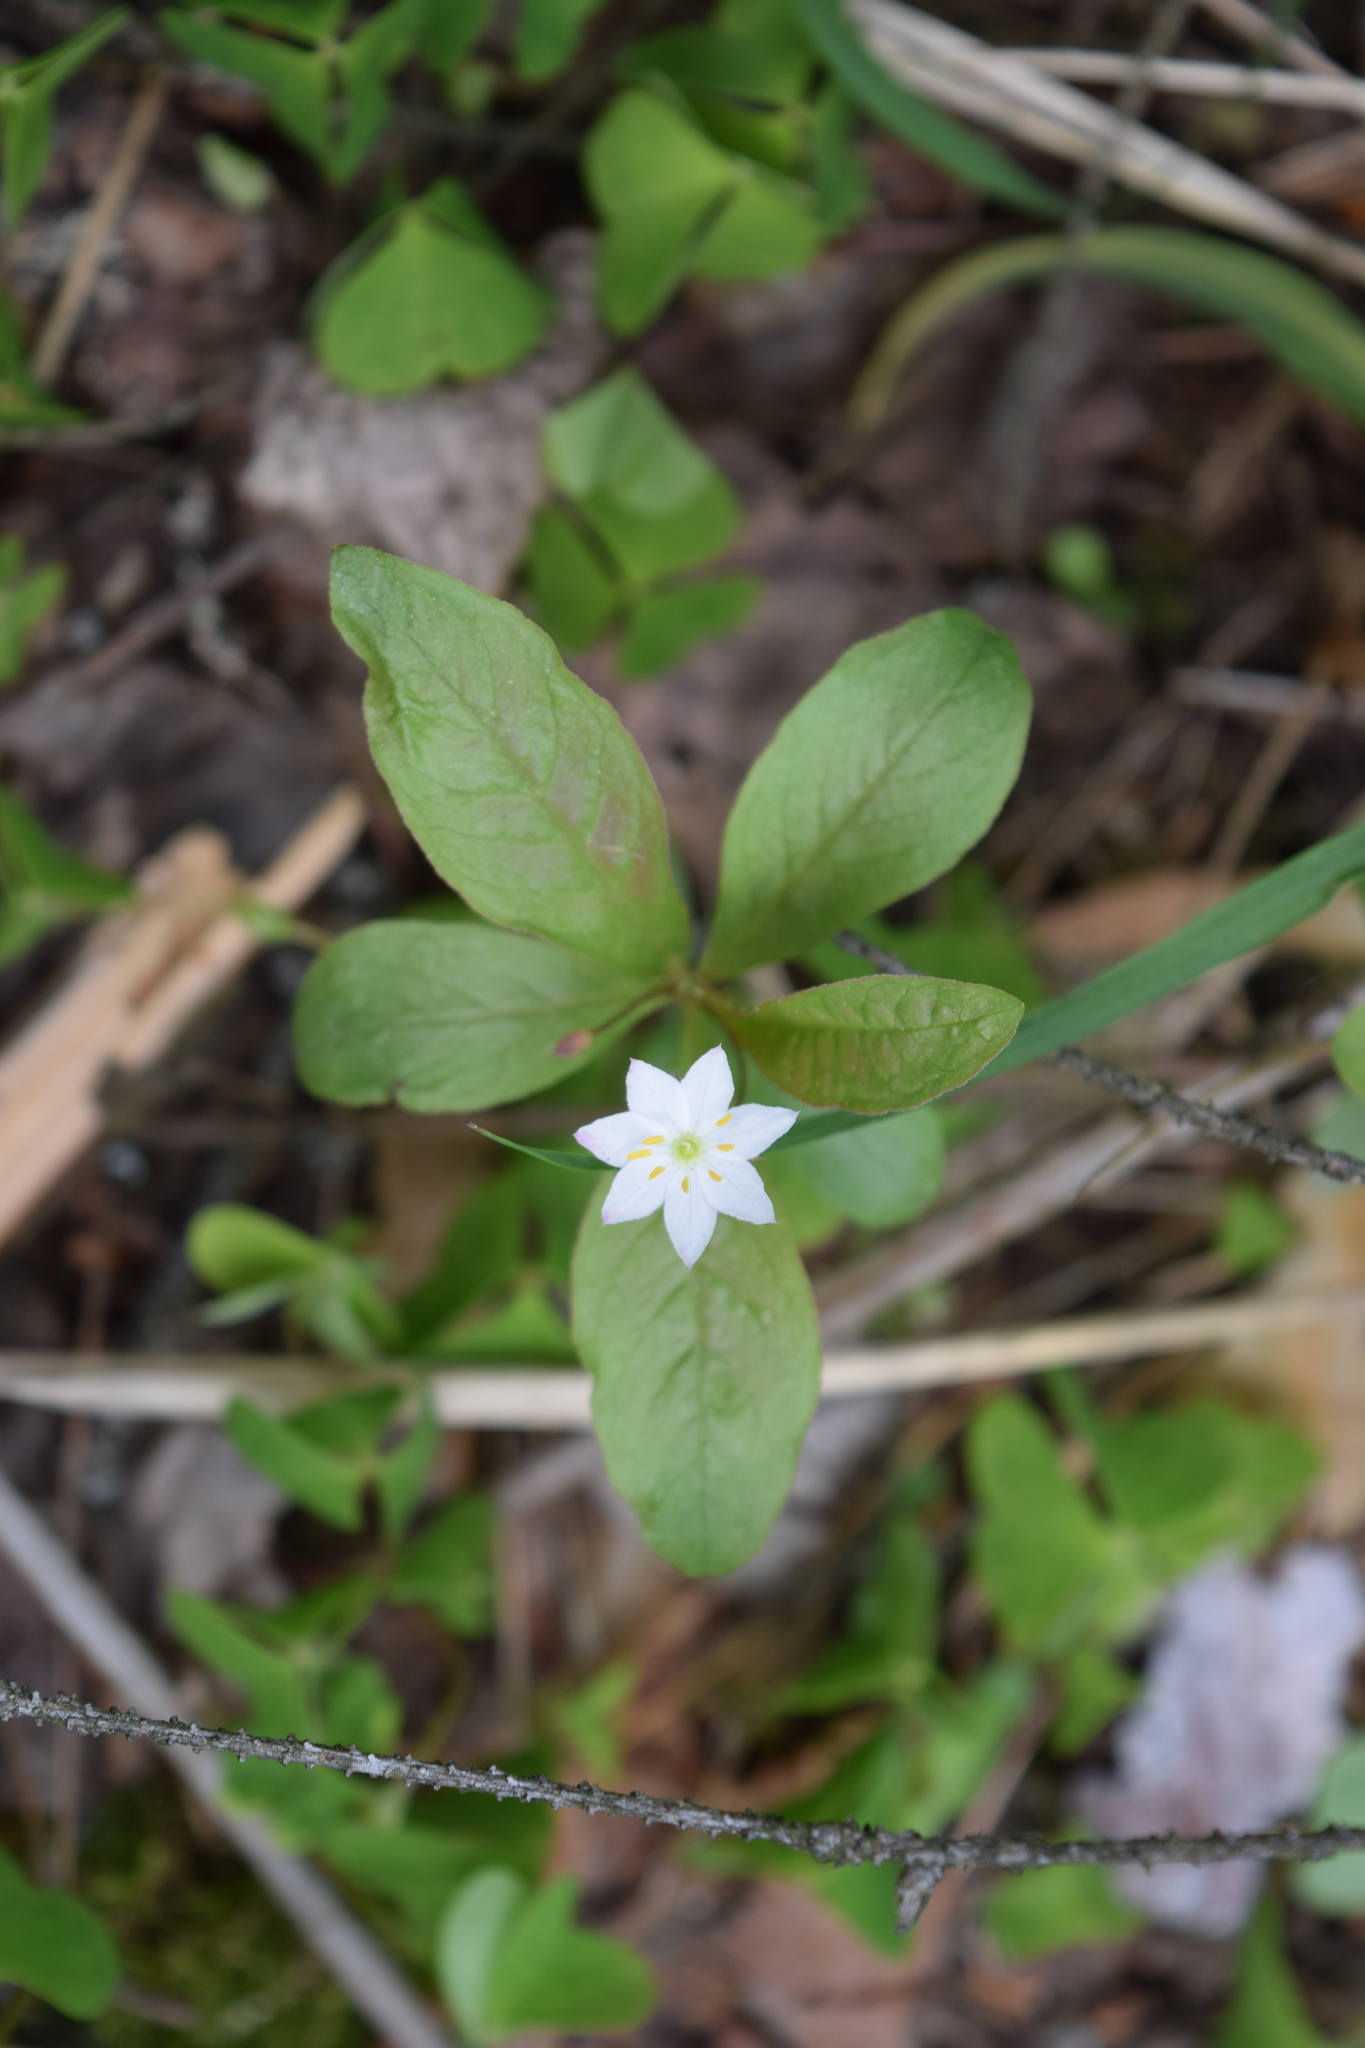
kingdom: Plantae
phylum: Tracheophyta
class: Magnoliopsida
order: Ericales
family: Primulaceae
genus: Lysimachia
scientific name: Lysimachia europaea
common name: Arctic starflower
